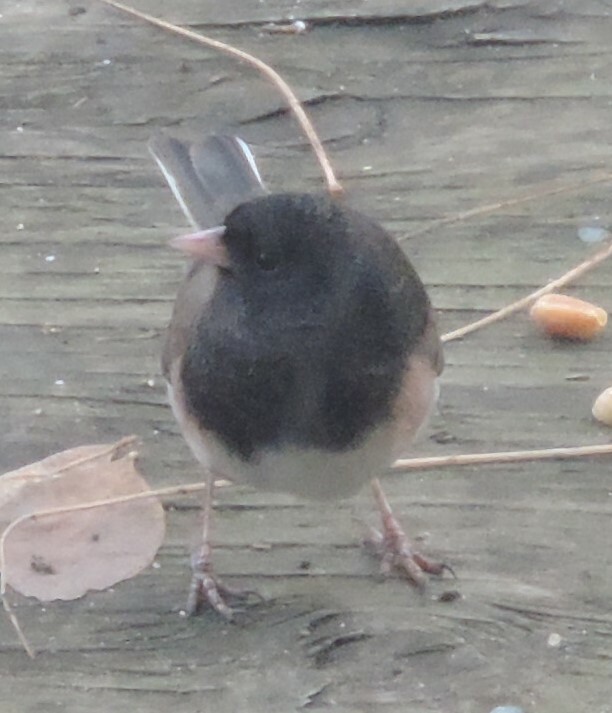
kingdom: Animalia
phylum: Chordata
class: Aves
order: Passeriformes
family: Passerellidae
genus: Junco
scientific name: Junco hyemalis
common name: Dark-eyed junco
